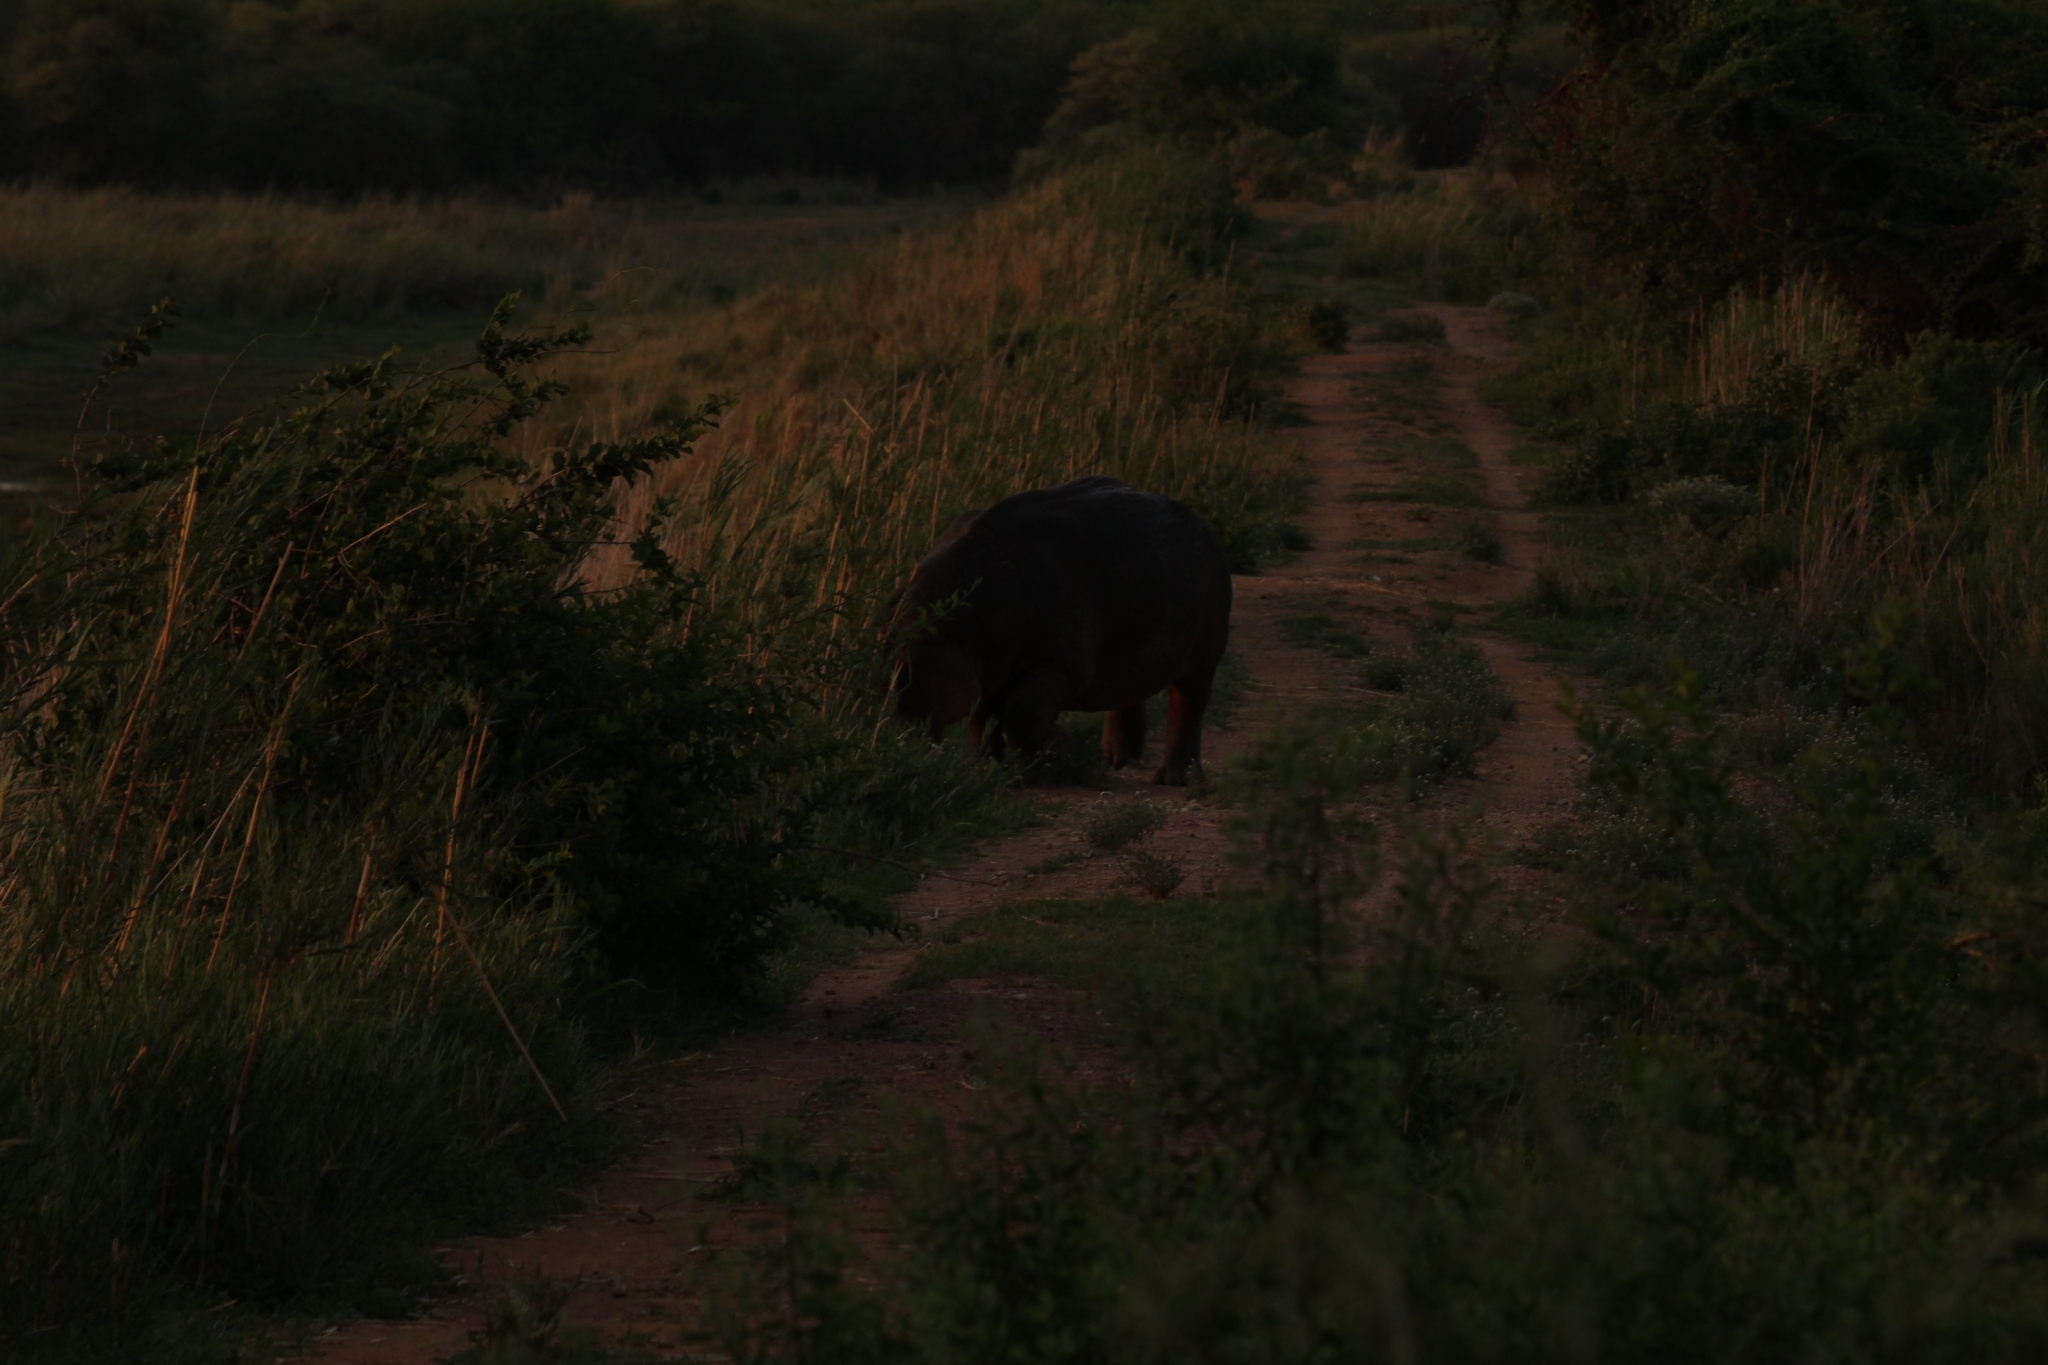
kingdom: Animalia
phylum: Chordata
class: Mammalia
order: Artiodactyla
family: Hippopotamidae
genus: Hippopotamus
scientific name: Hippopotamus amphibius
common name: Common hippopotamus
